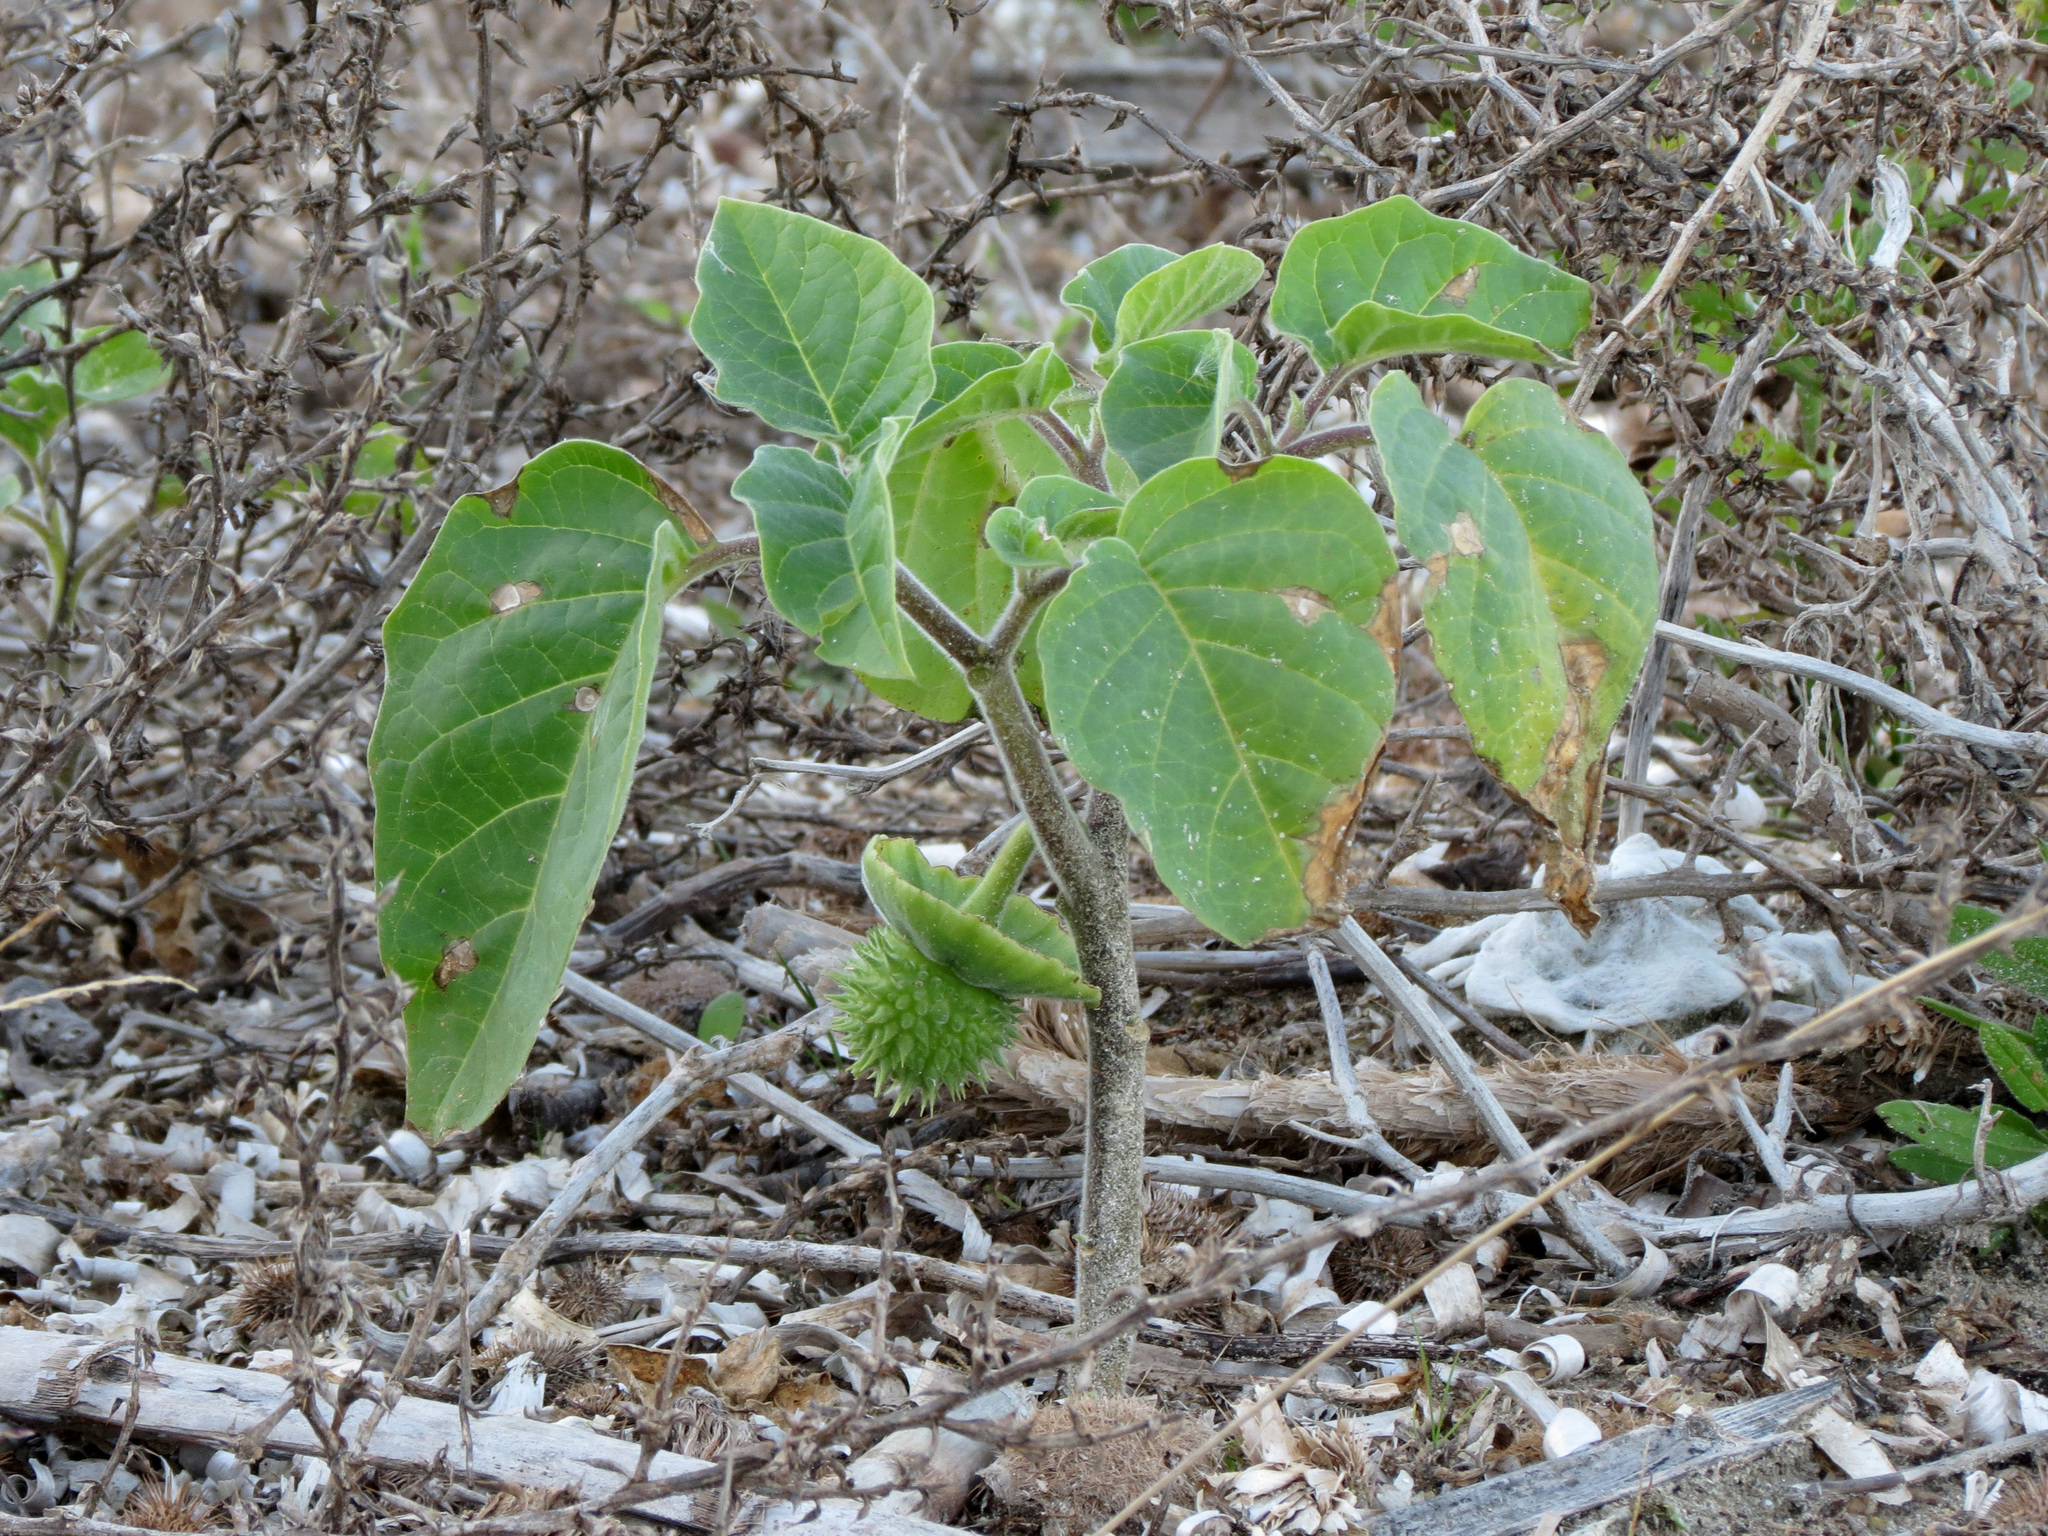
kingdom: Plantae
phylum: Tracheophyta
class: Magnoliopsida
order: Solanales
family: Solanaceae
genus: Datura
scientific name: Datura innoxia
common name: Downy thorn-apple
